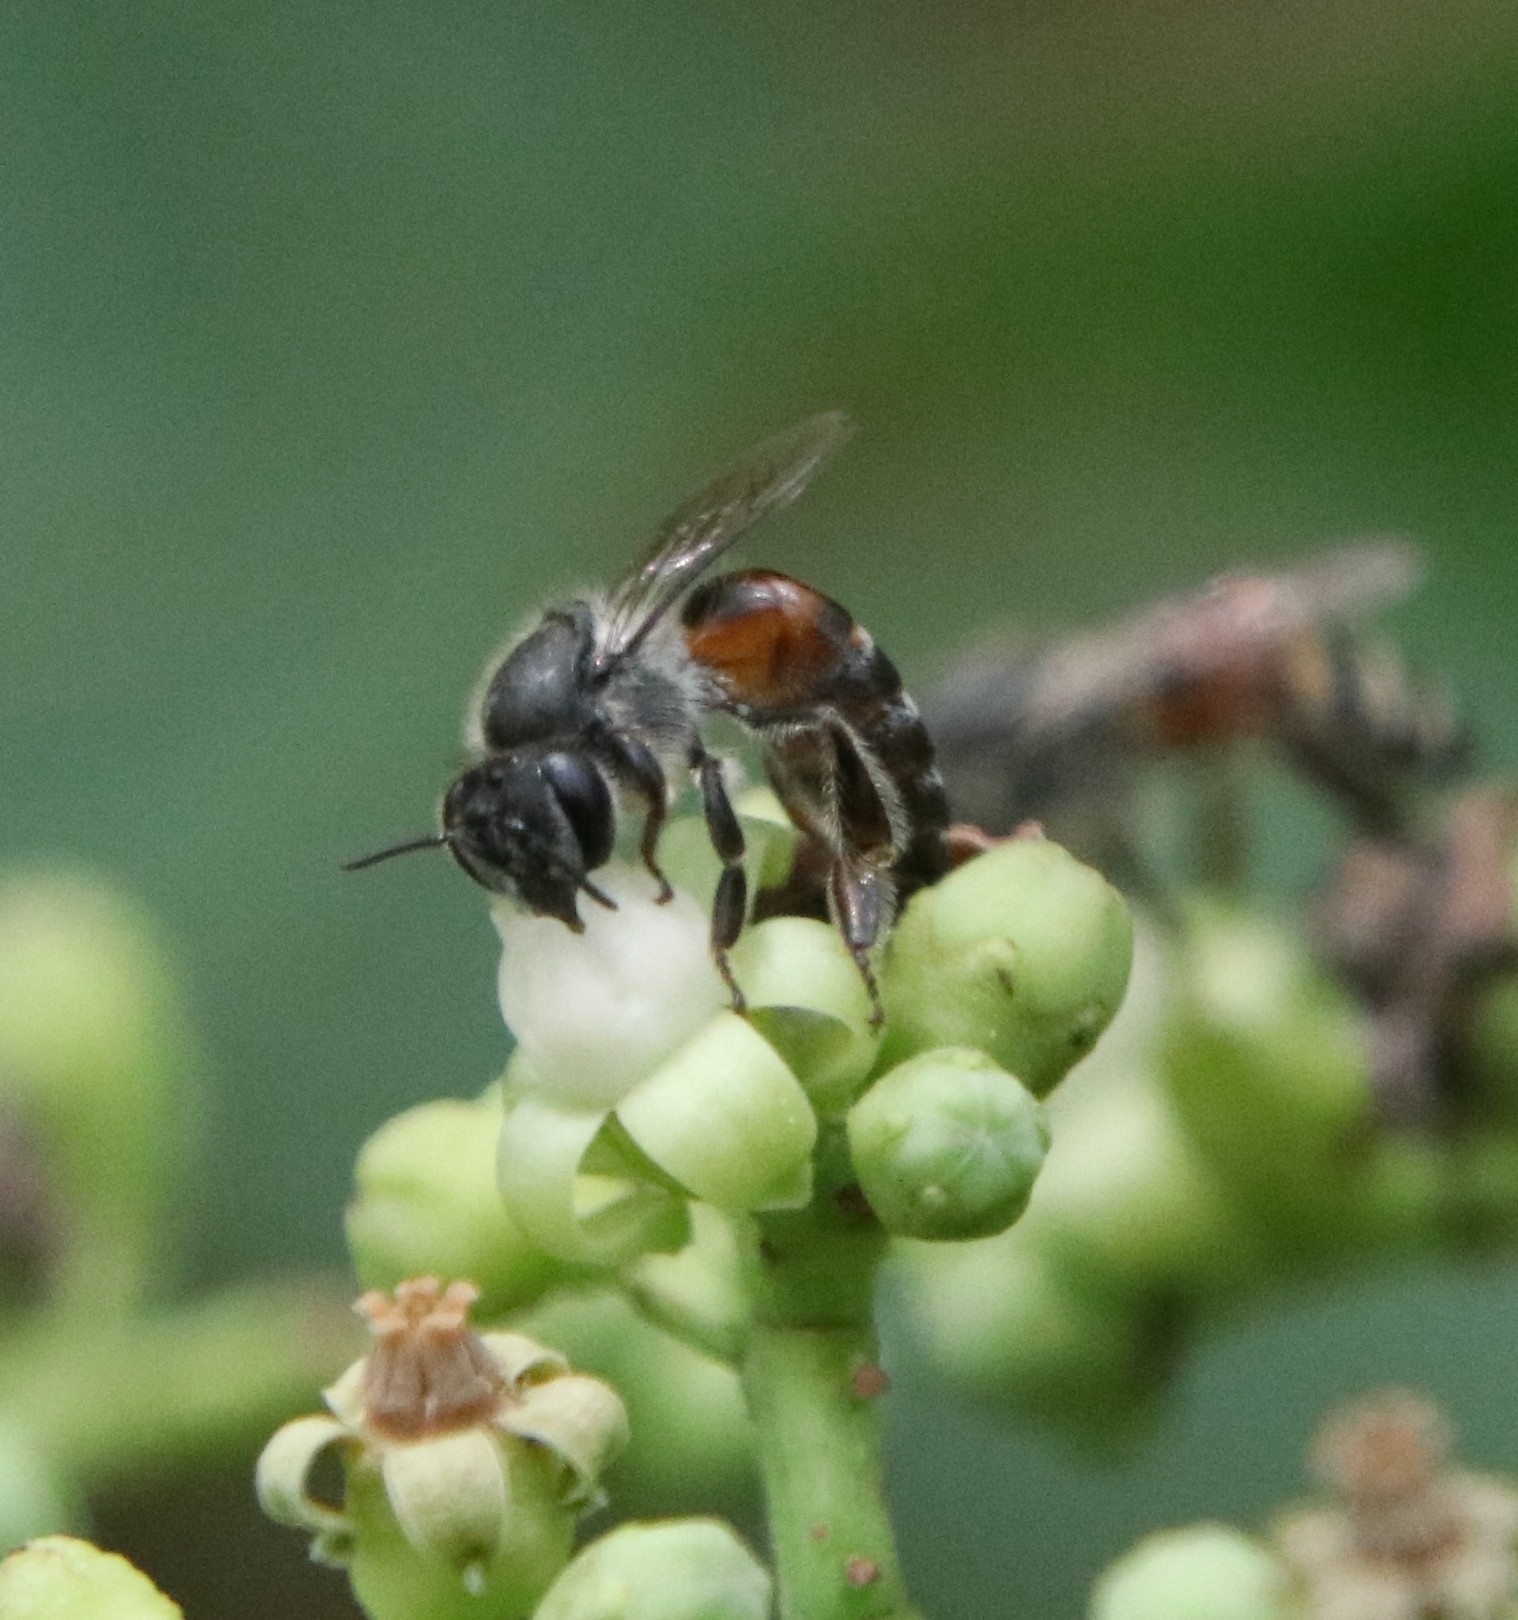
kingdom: Animalia
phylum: Arthropoda
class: Insecta
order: Hymenoptera
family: Apidae
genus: Apis
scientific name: Apis florea
